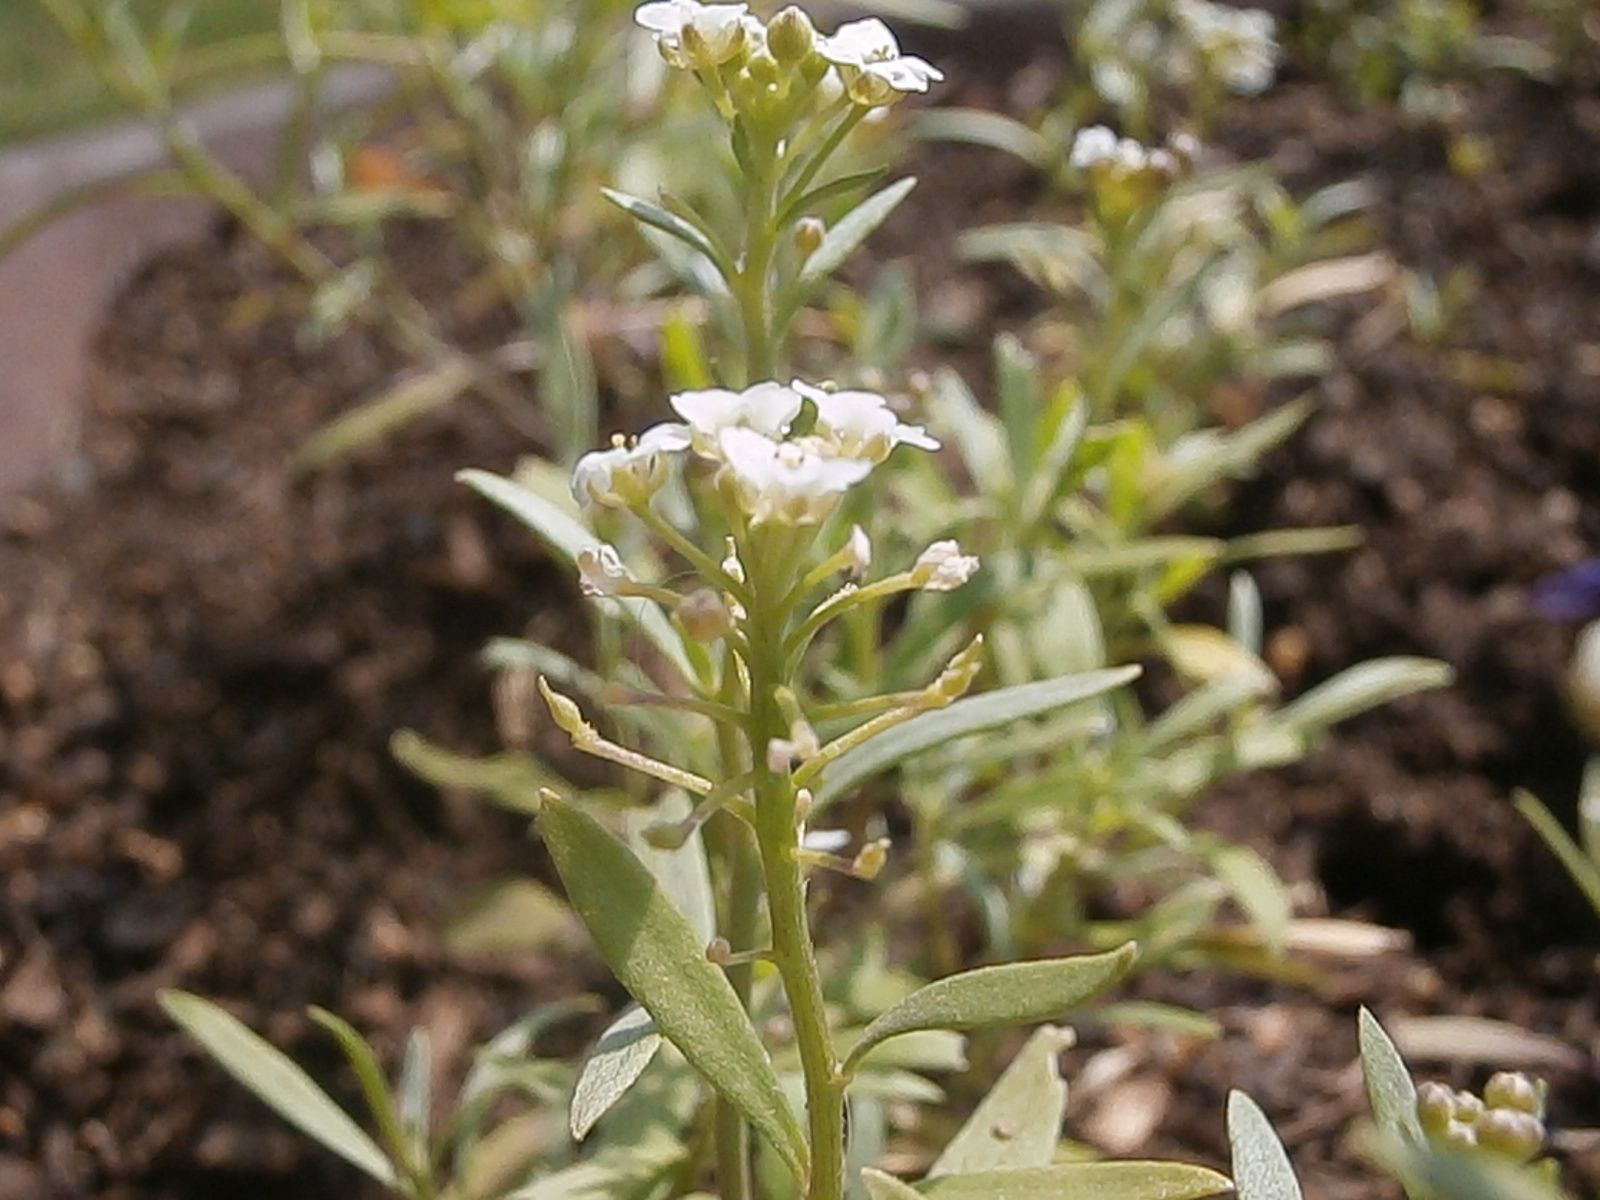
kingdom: Plantae
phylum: Tracheophyta
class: Magnoliopsida
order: Brassicales
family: Brassicaceae
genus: Lobularia
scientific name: Lobularia maritima
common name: Sweet alison
